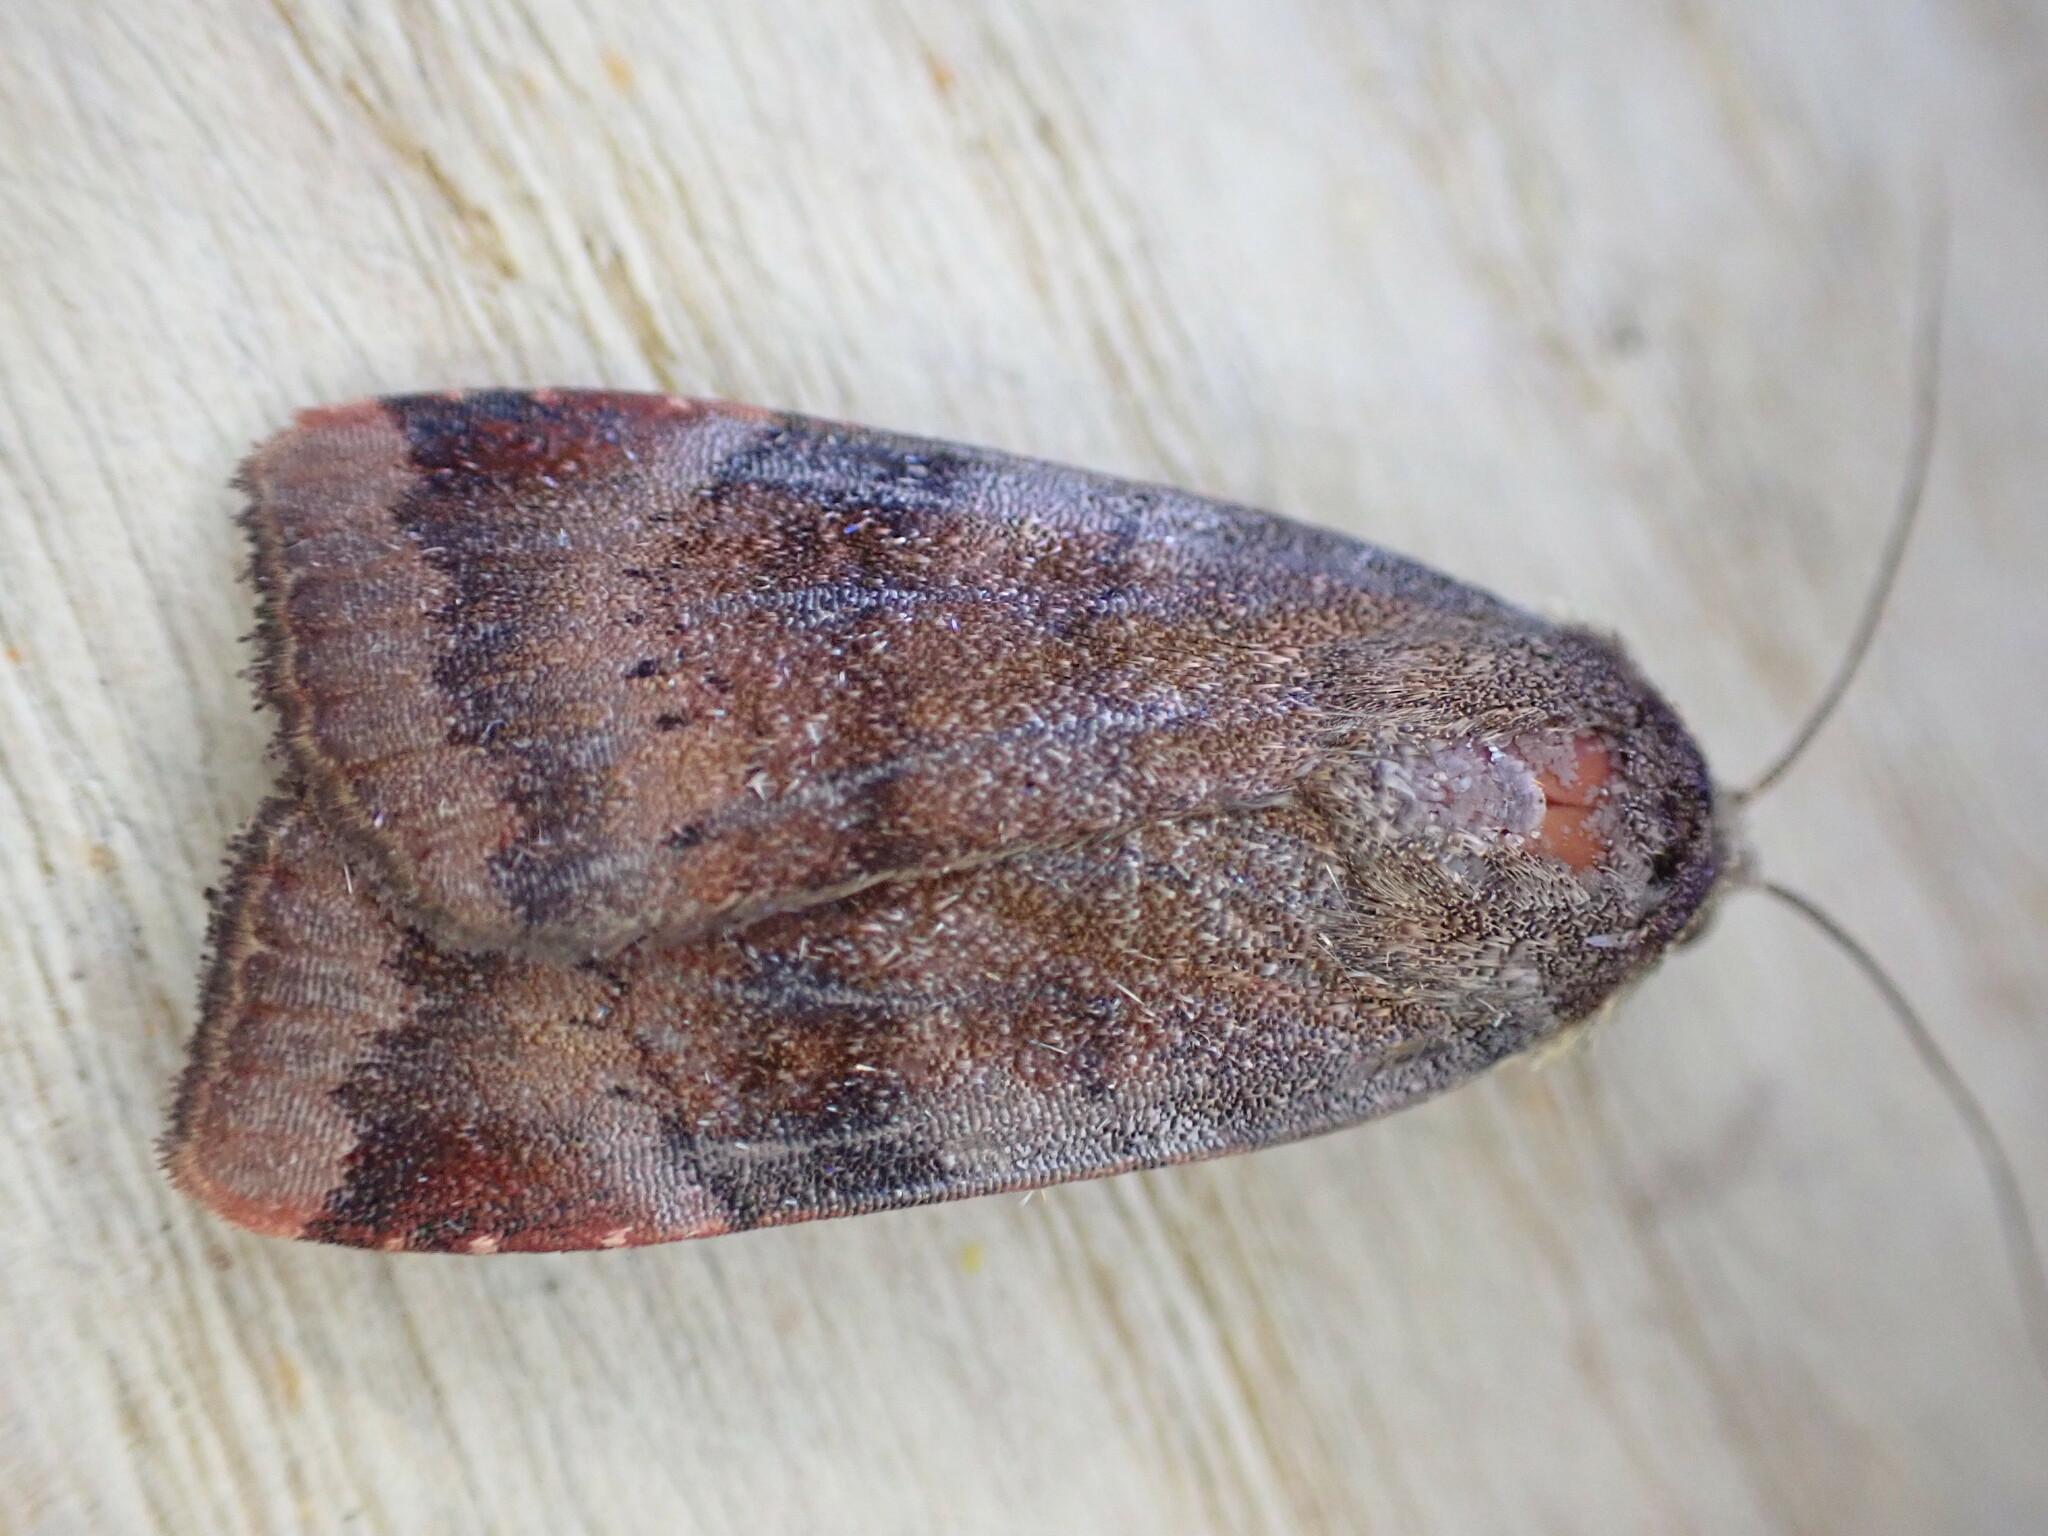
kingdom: Animalia
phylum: Arthropoda
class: Insecta
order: Lepidoptera
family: Noctuidae
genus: Noctua
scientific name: Noctua janthe
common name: Lesser broad-bordered yellow underwing
